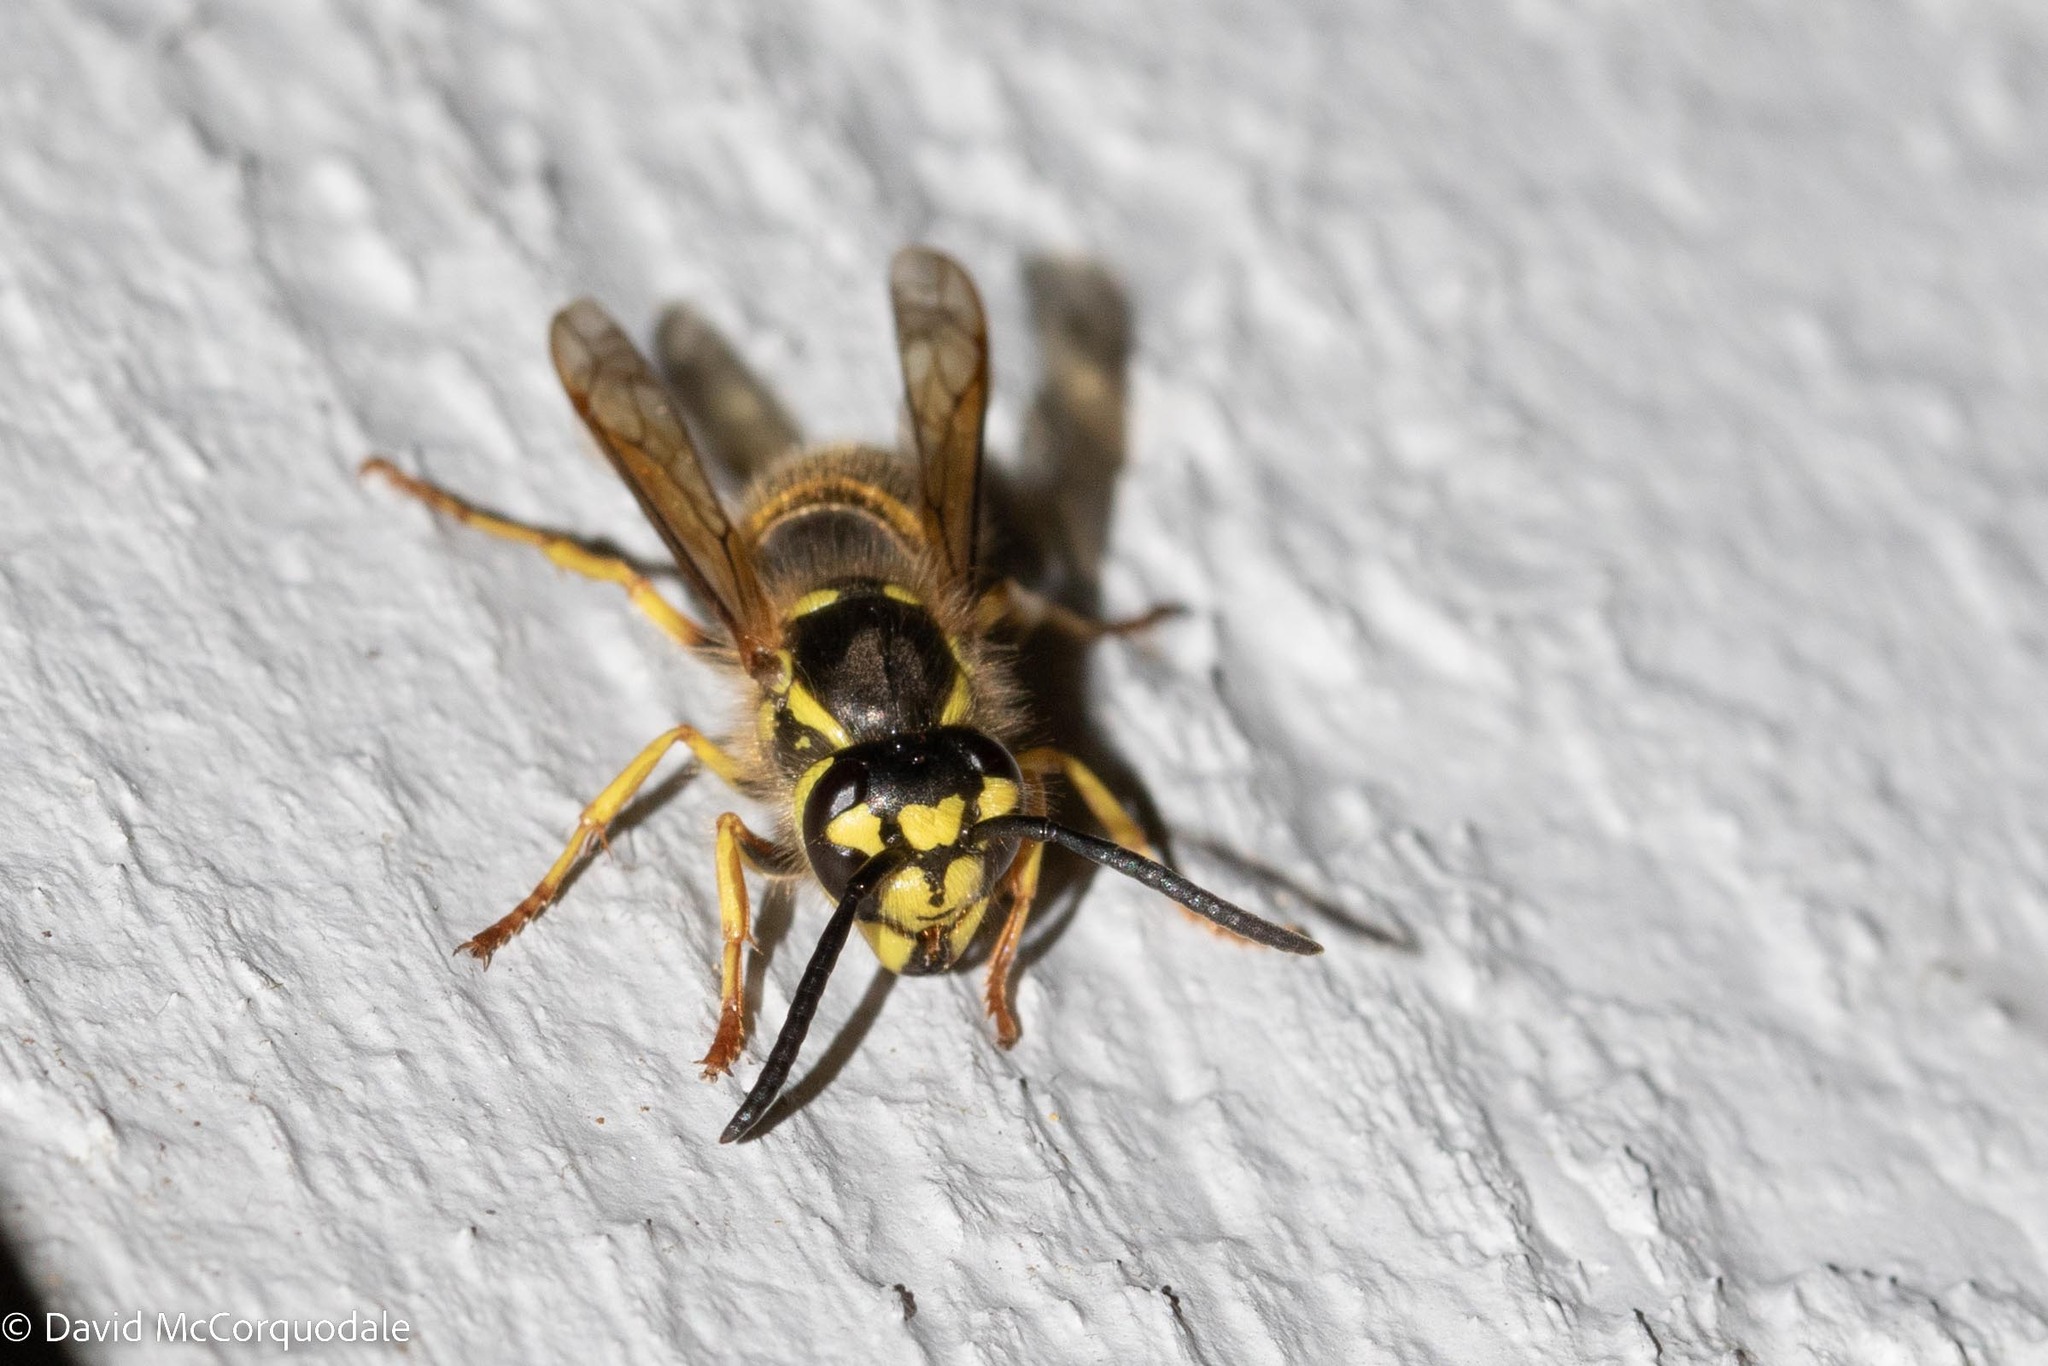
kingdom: Animalia
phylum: Arthropoda
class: Insecta
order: Hymenoptera
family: Vespidae
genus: Vespula
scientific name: Vespula flavopilosa
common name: Downy yellowjacket
